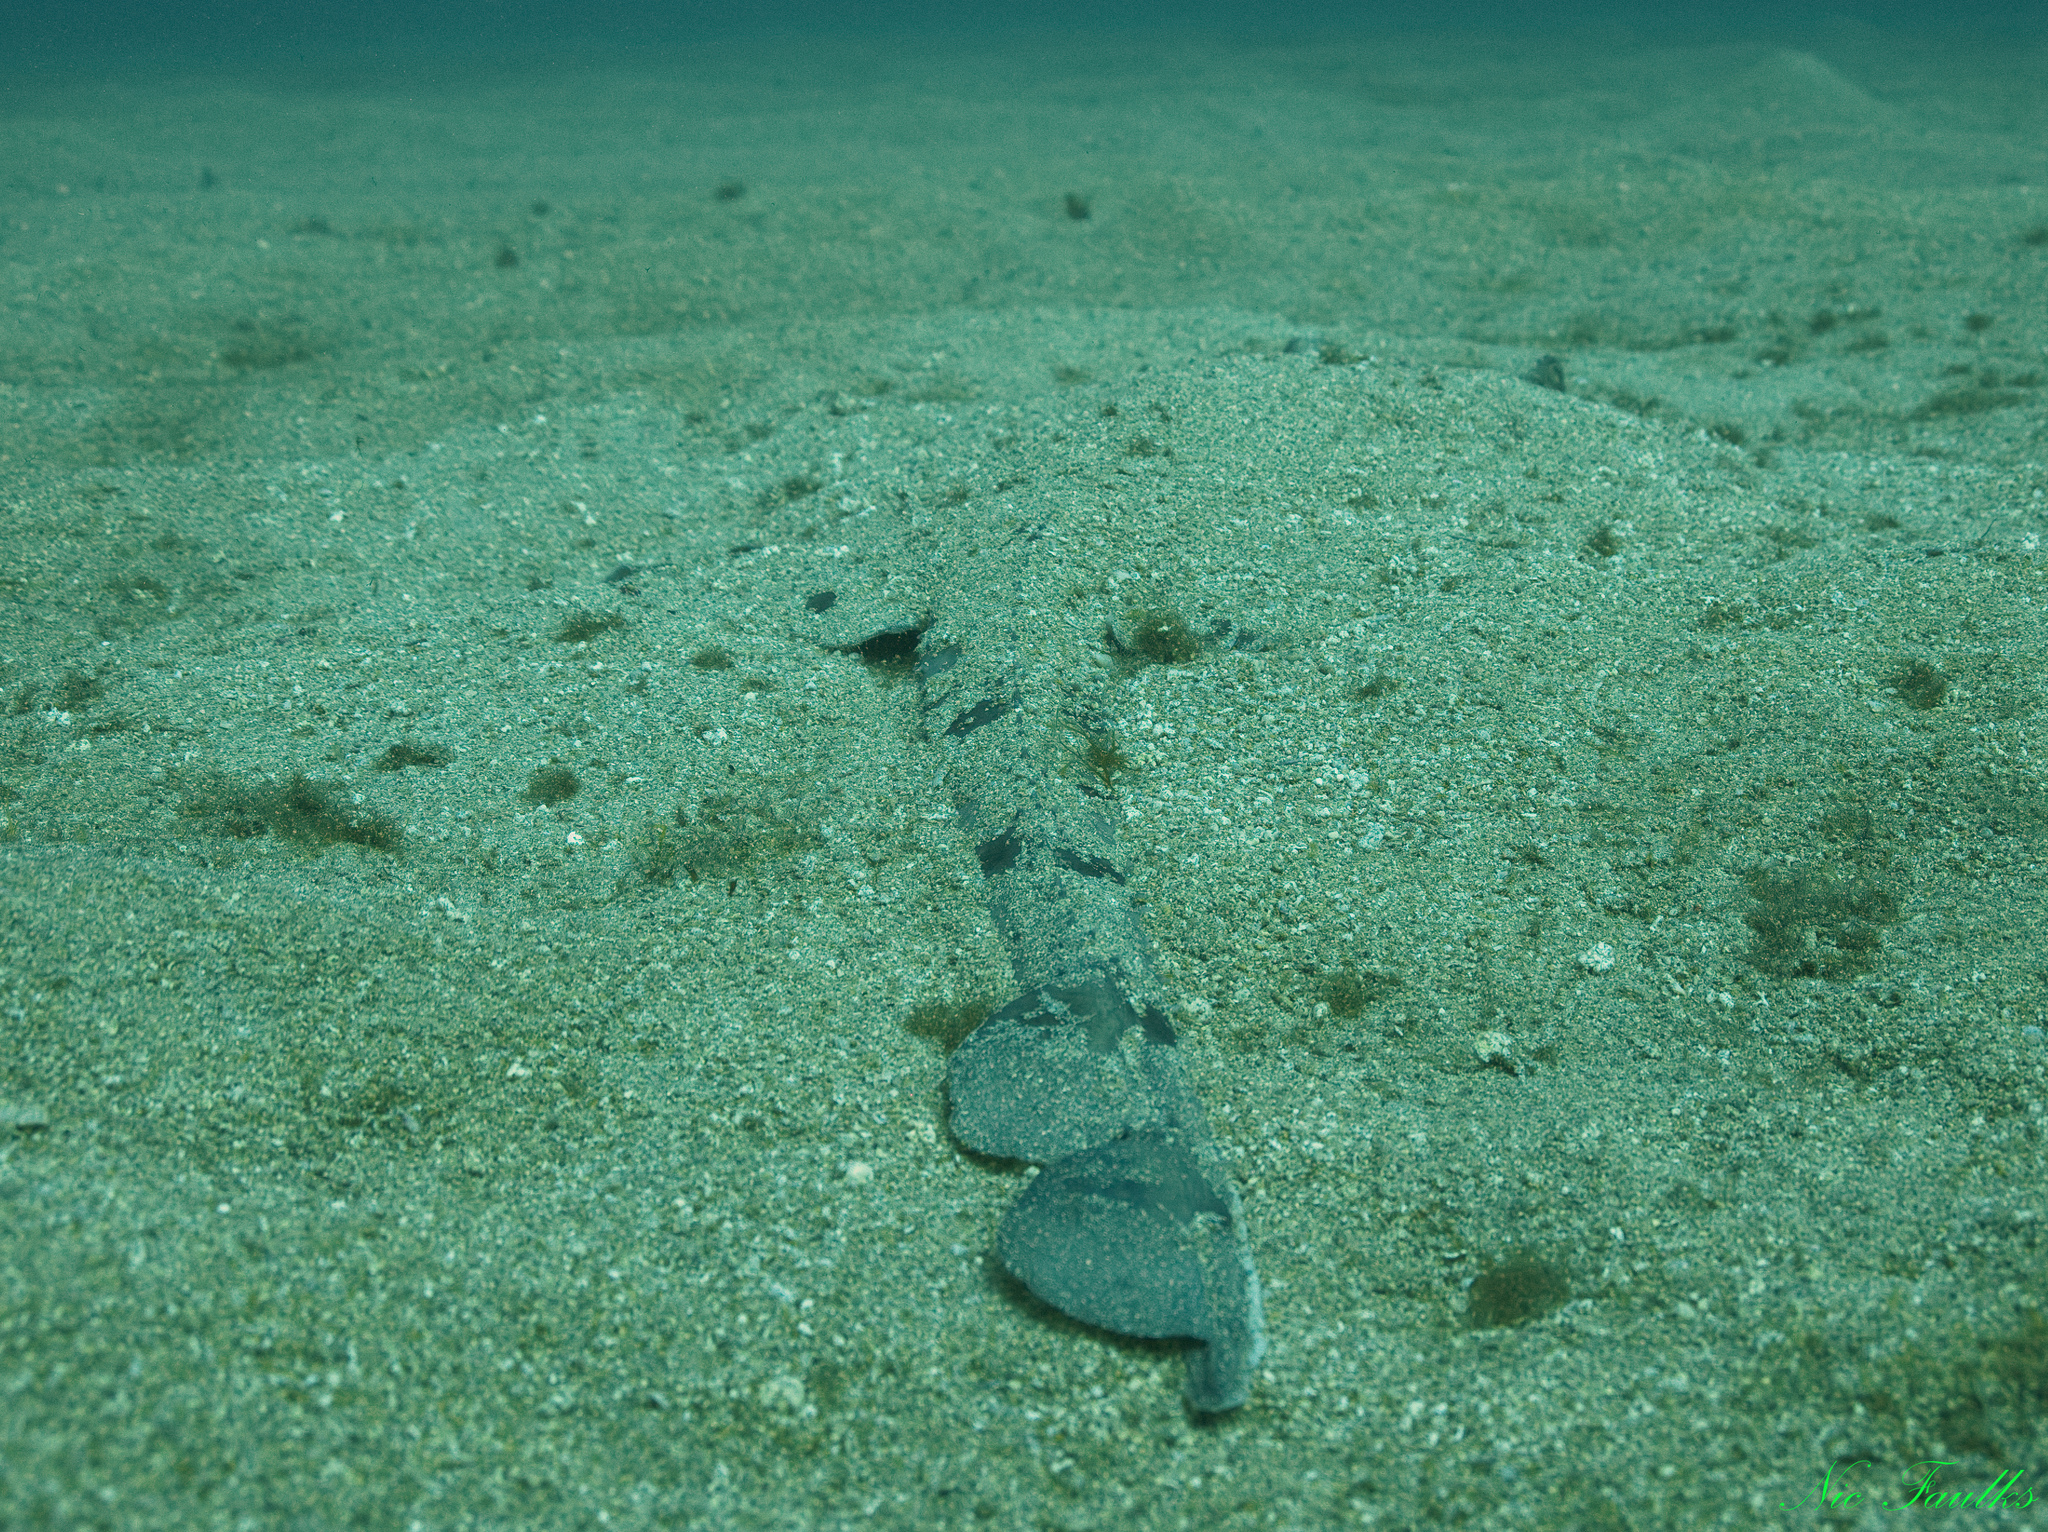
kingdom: Animalia
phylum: Chordata
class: Elasmobranchii
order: Rajiformes
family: Rajidae
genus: Rostroraja
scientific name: Rostroraja alba
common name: White skate
